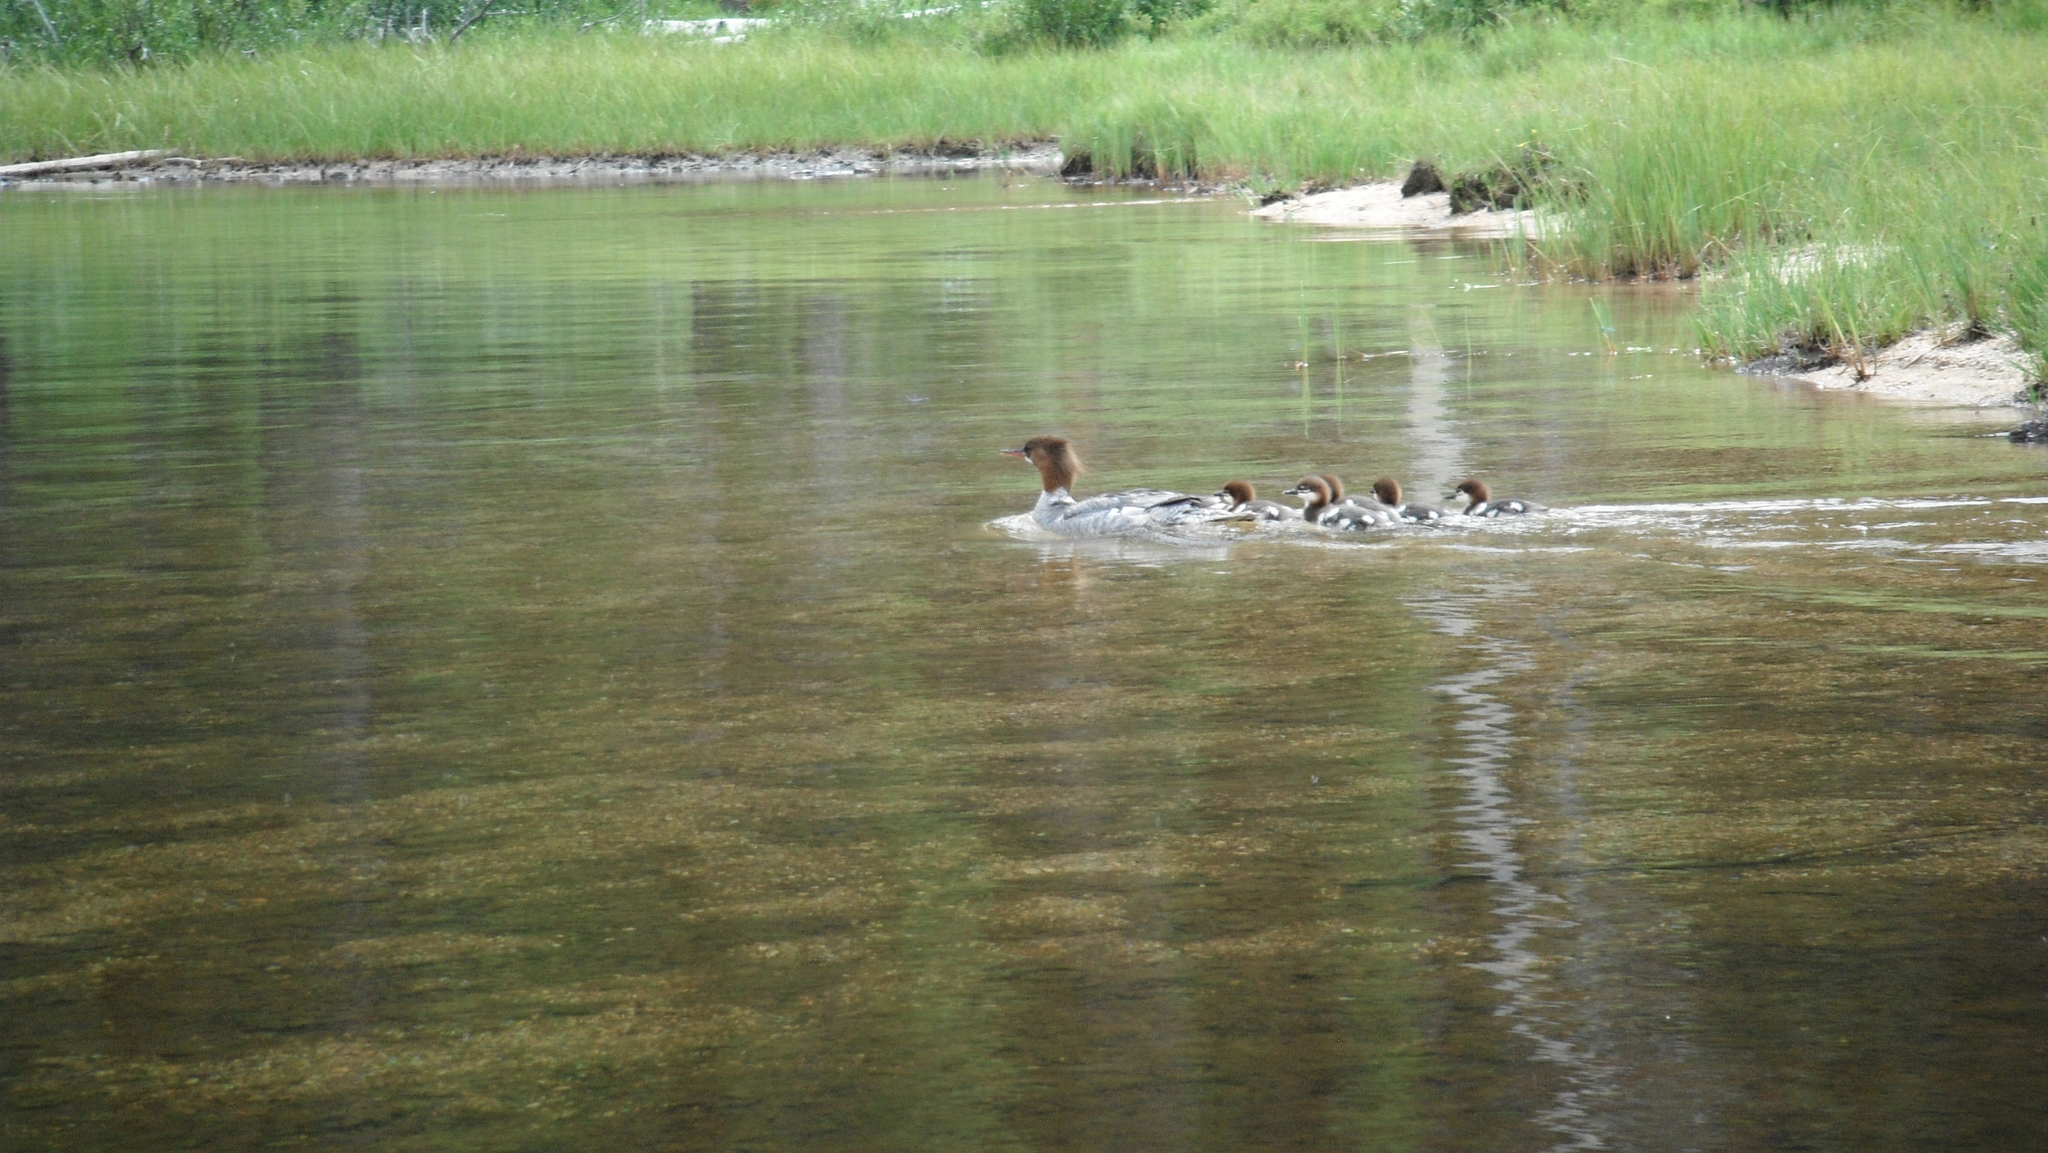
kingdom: Animalia
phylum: Chordata
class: Aves
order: Anseriformes
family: Anatidae
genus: Mergus
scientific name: Mergus merganser
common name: Common merganser
